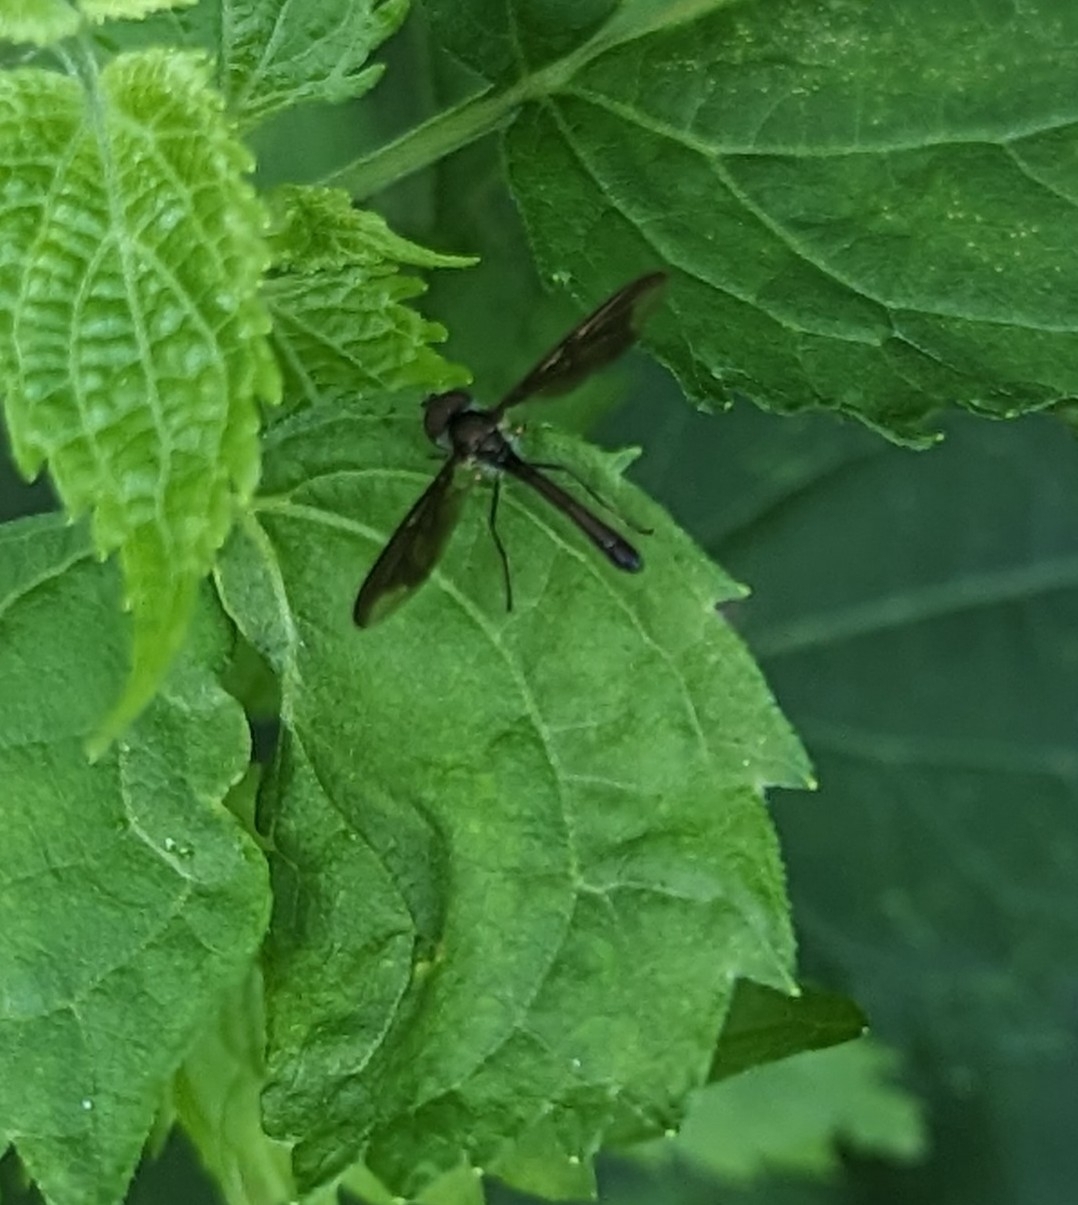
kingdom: Animalia
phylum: Arthropoda
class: Insecta
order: Diptera
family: Syrphidae
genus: Ocyptamus
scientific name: Ocyptamus fuscipennis
